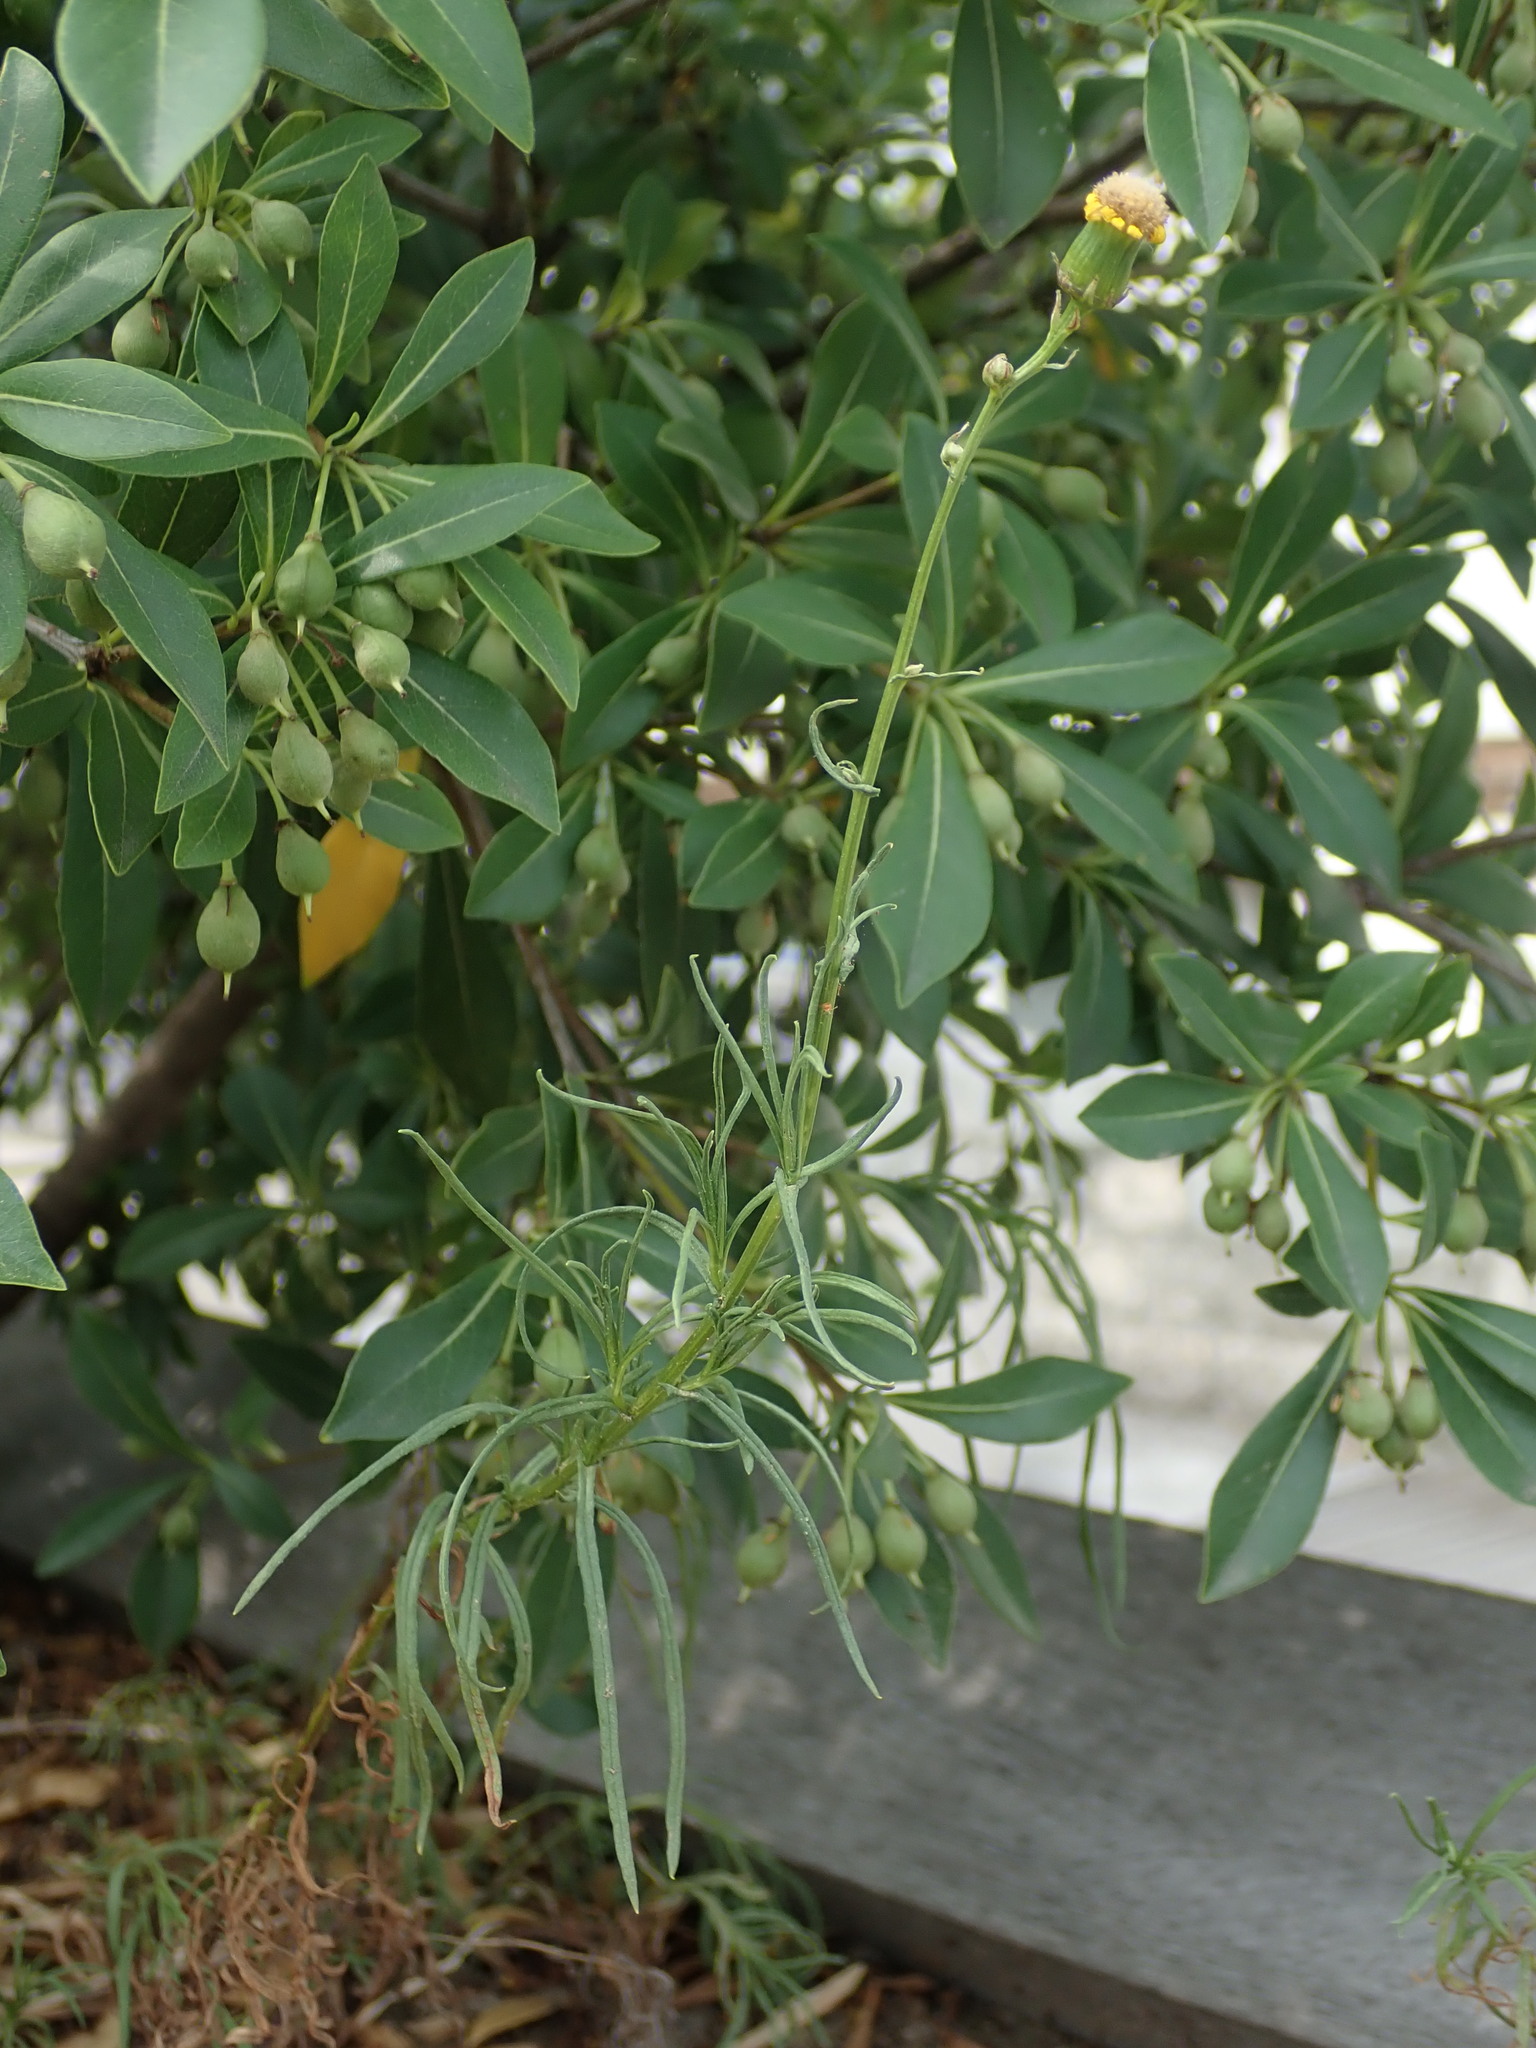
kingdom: Plantae
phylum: Tracheophyta
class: Magnoliopsida
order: Asterales
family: Asteraceae
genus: Senecio
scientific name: Senecio inaequidens
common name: Narrow-leaved ragwort
